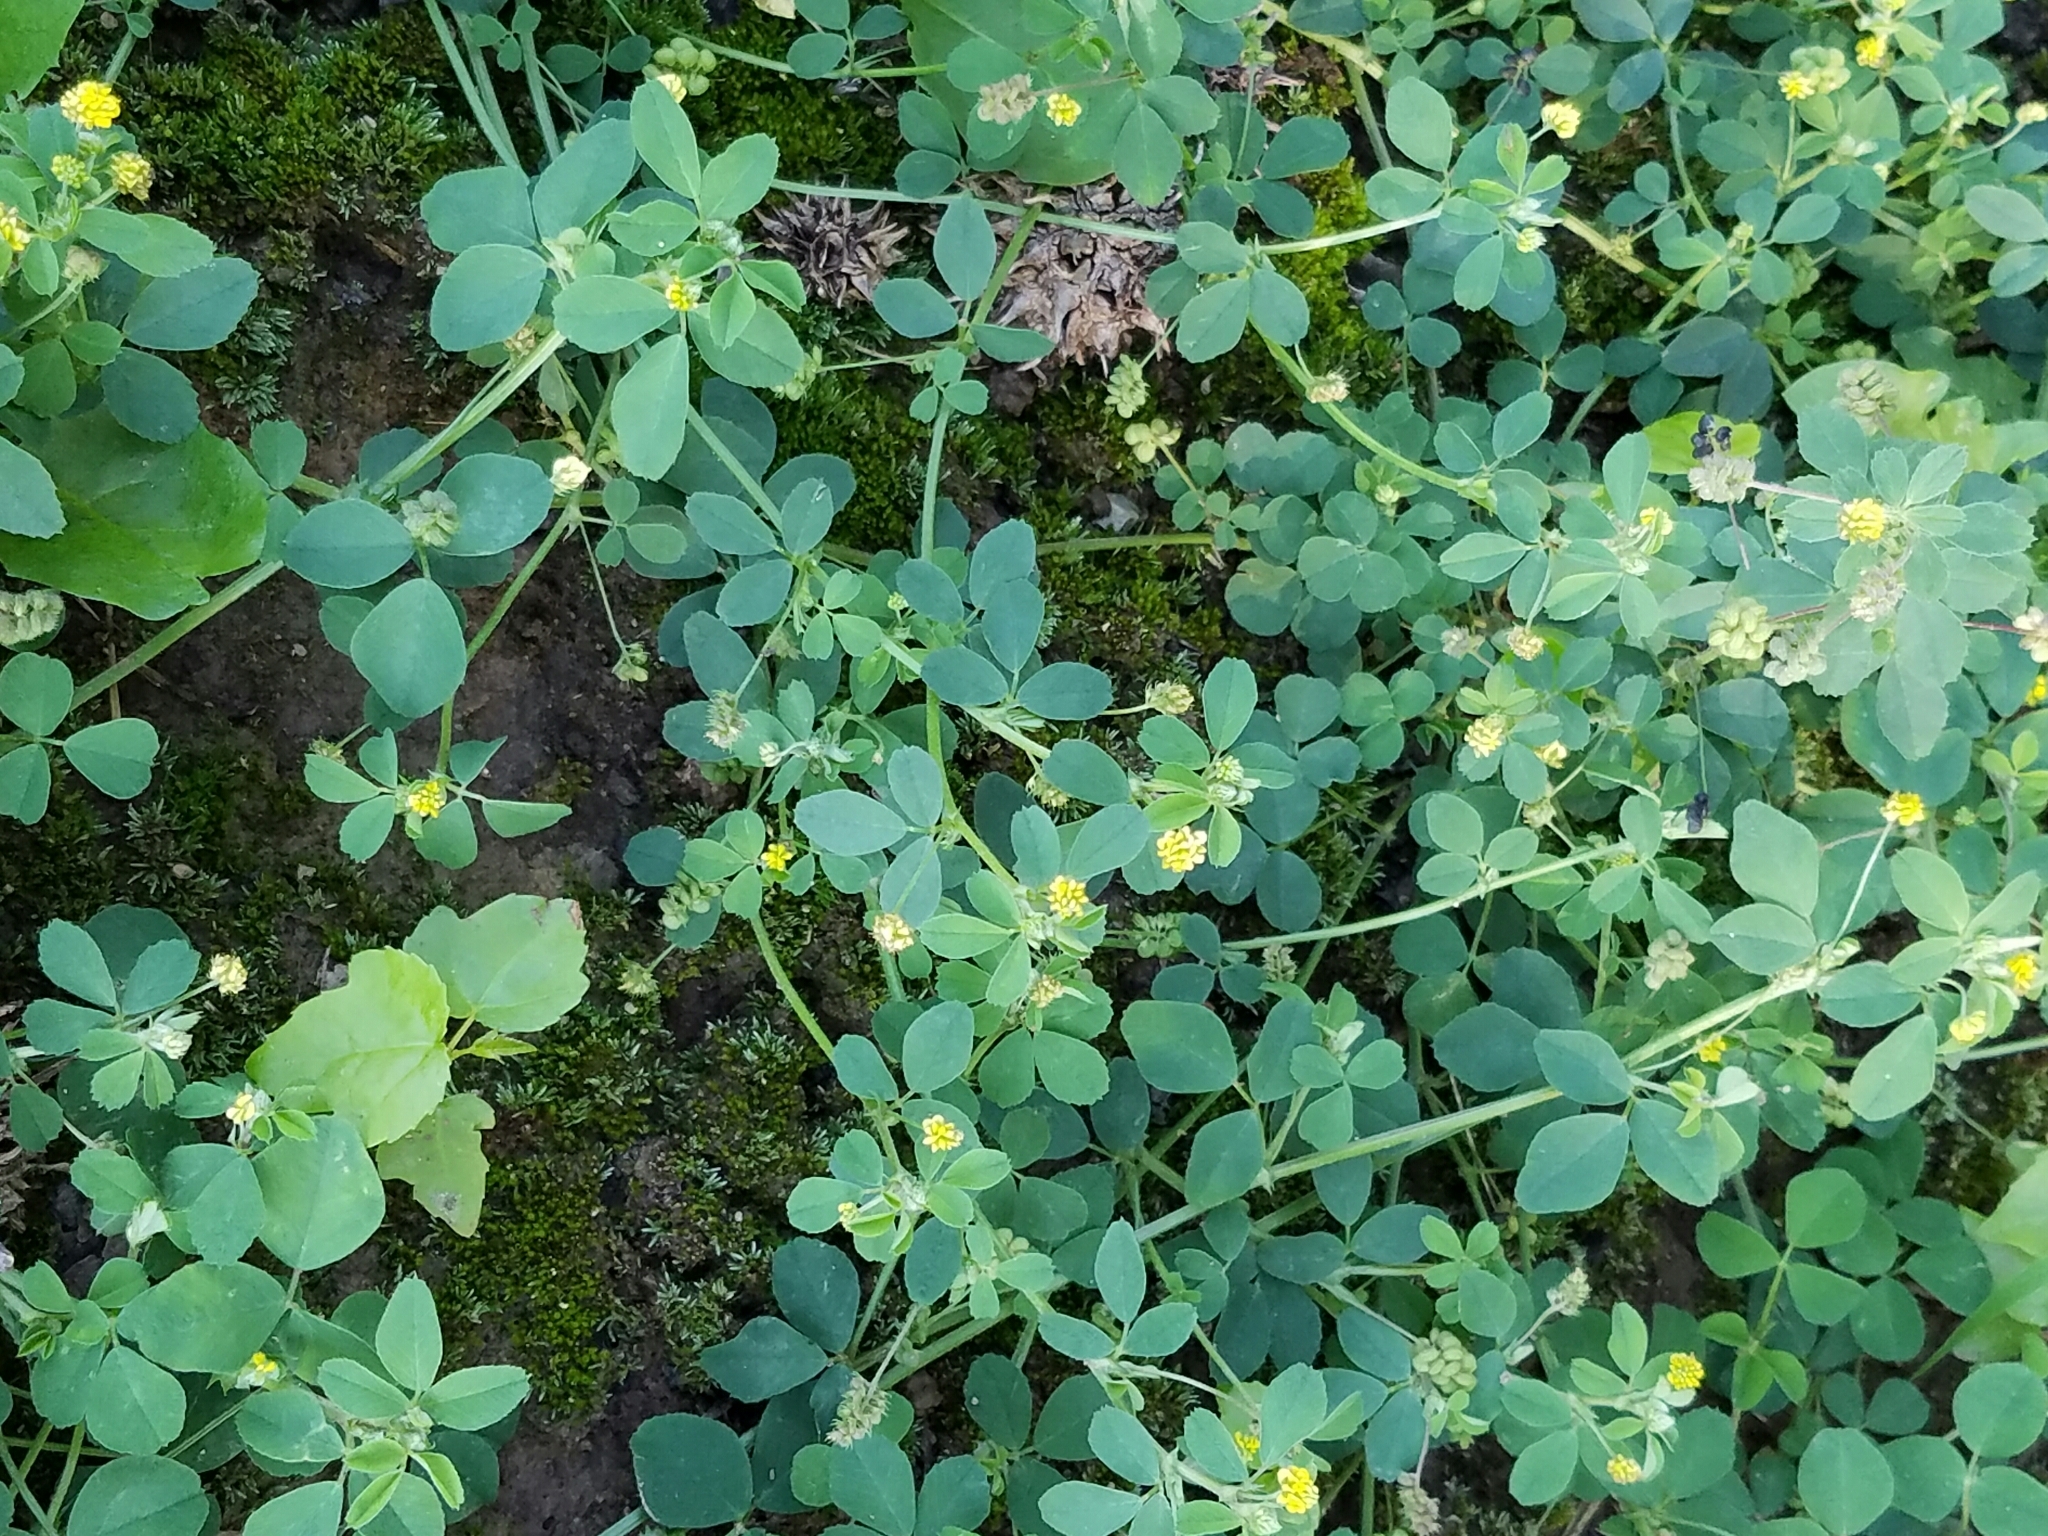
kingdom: Plantae
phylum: Tracheophyta
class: Magnoliopsida
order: Fabales
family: Fabaceae
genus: Medicago
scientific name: Medicago lupulina
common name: Black medick
